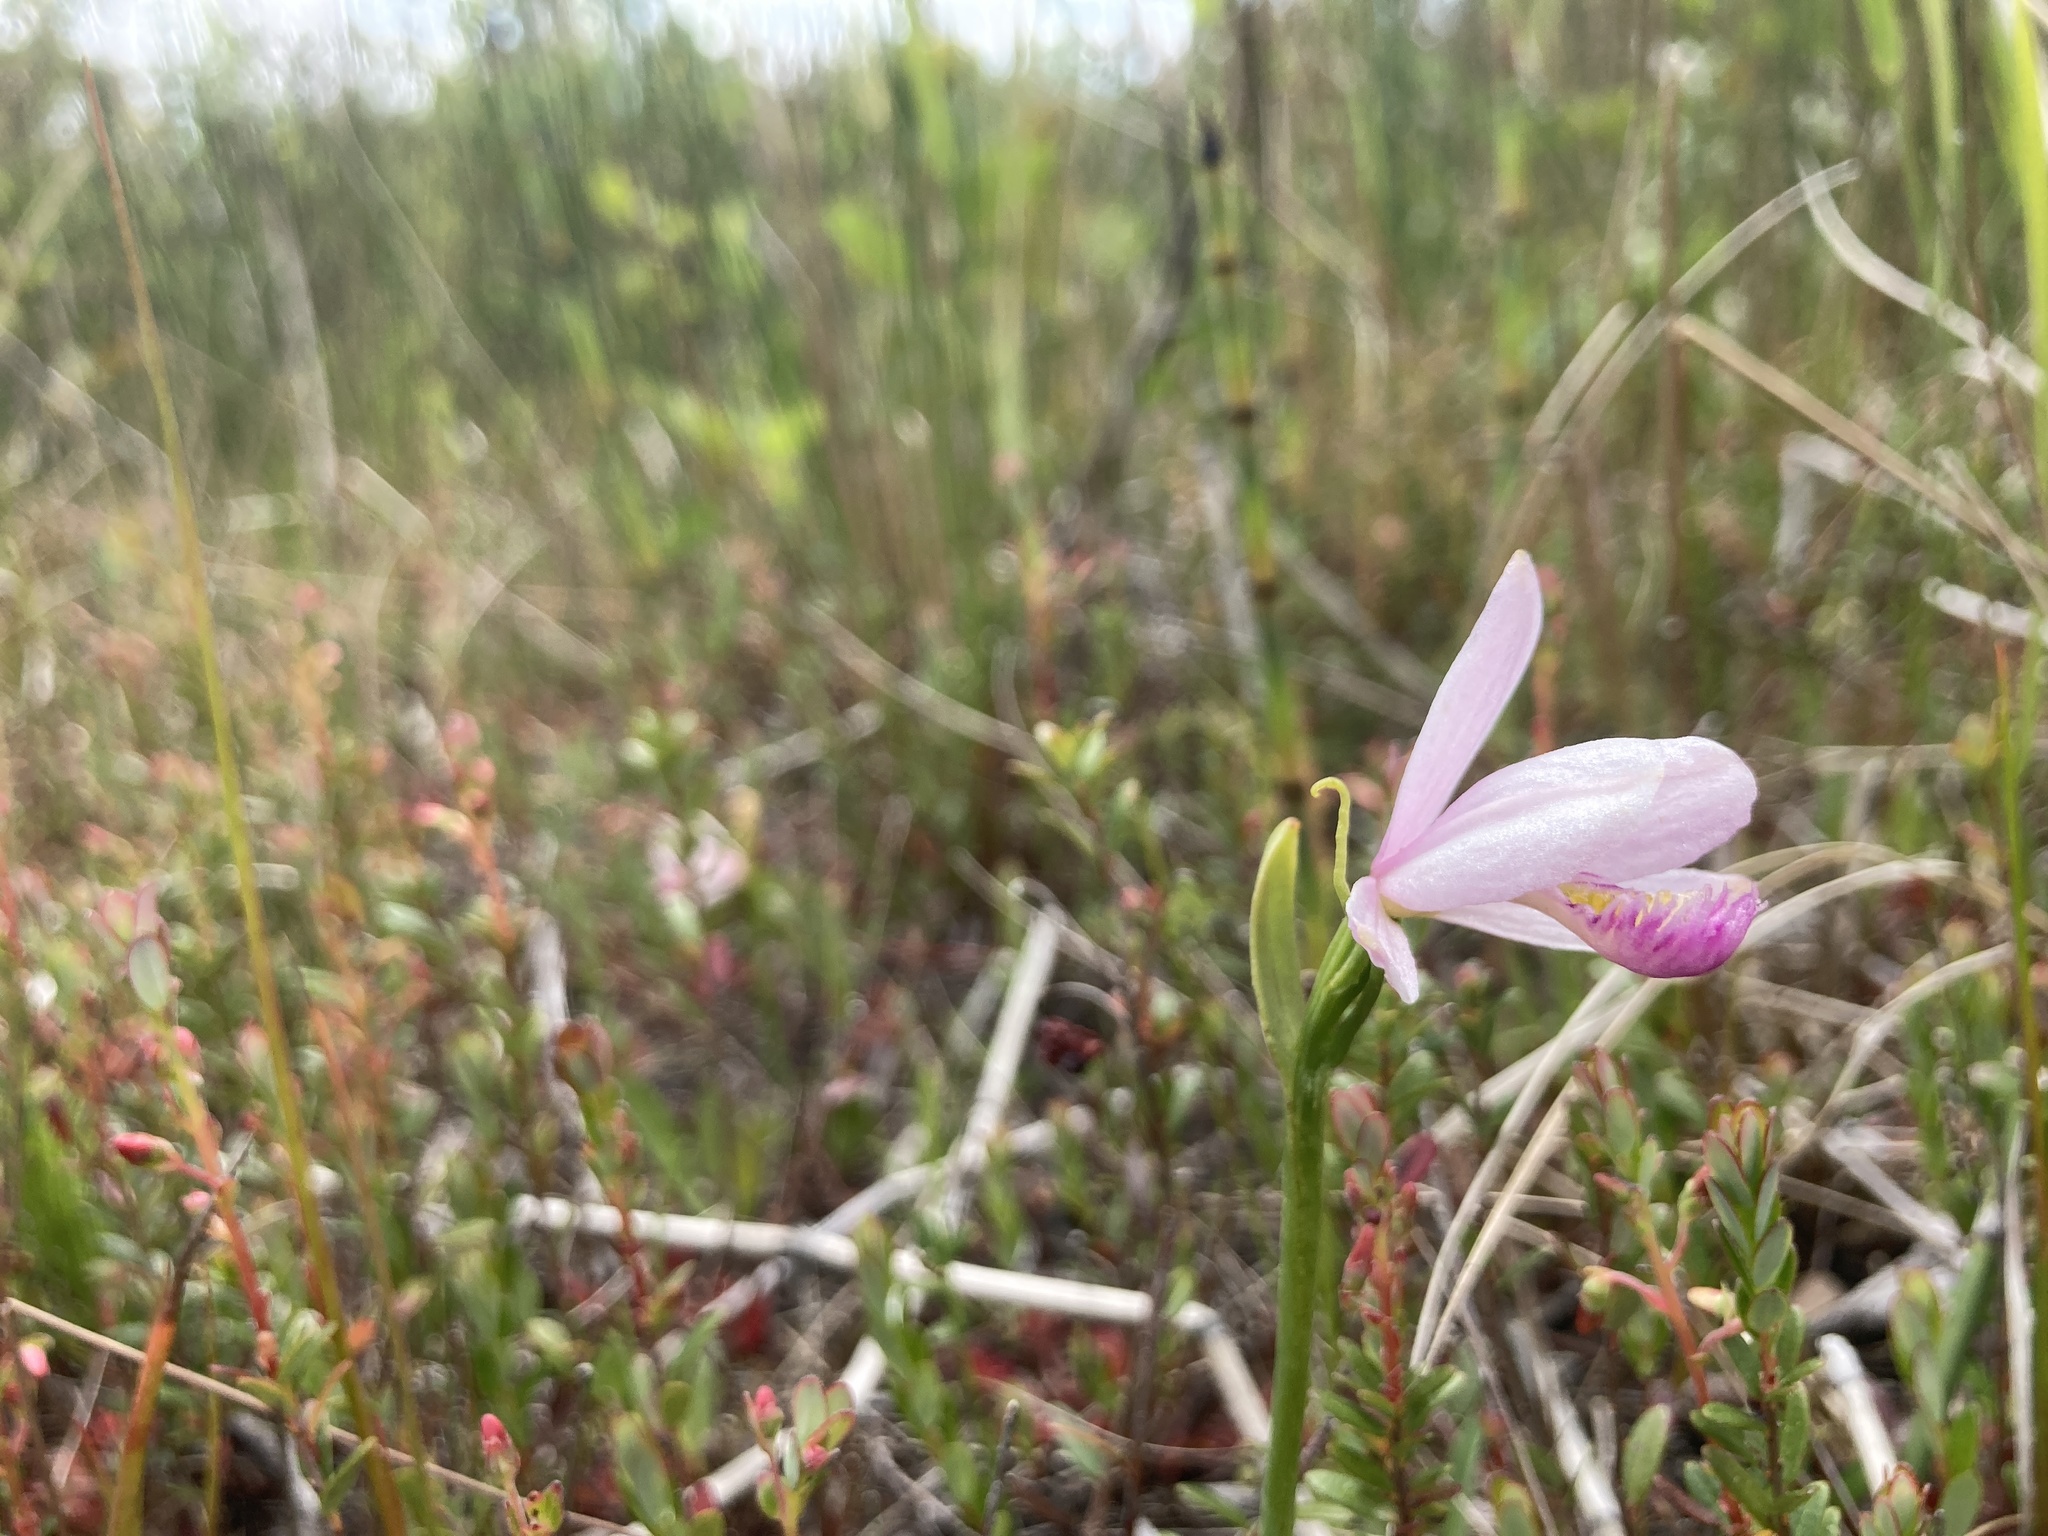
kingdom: Plantae
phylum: Tracheophyta
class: Liliopsida
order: Asparagales
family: Orchidaceae
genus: Pogonia
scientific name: Pogonia ophioglossoides
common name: Rose pogonia
